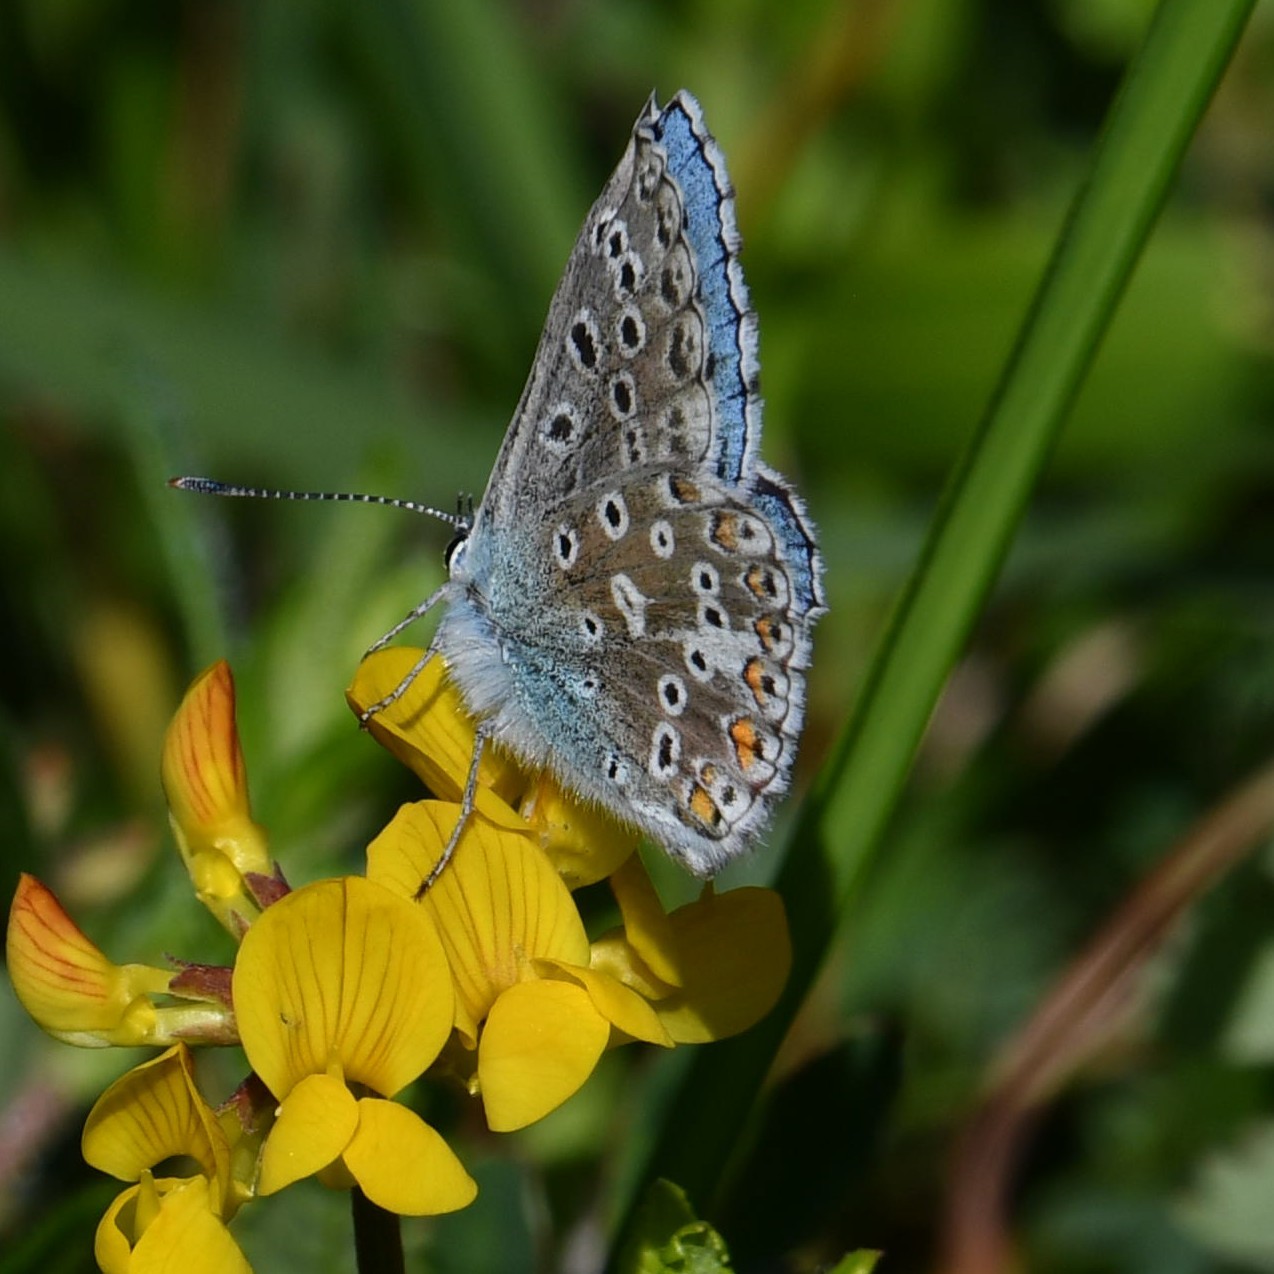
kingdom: Animalia
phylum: Arthropoda
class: Insecta
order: Lepidoptera
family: Lycaenidae
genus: Lysandra
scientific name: Lysandra bellargus
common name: Adonis blue
